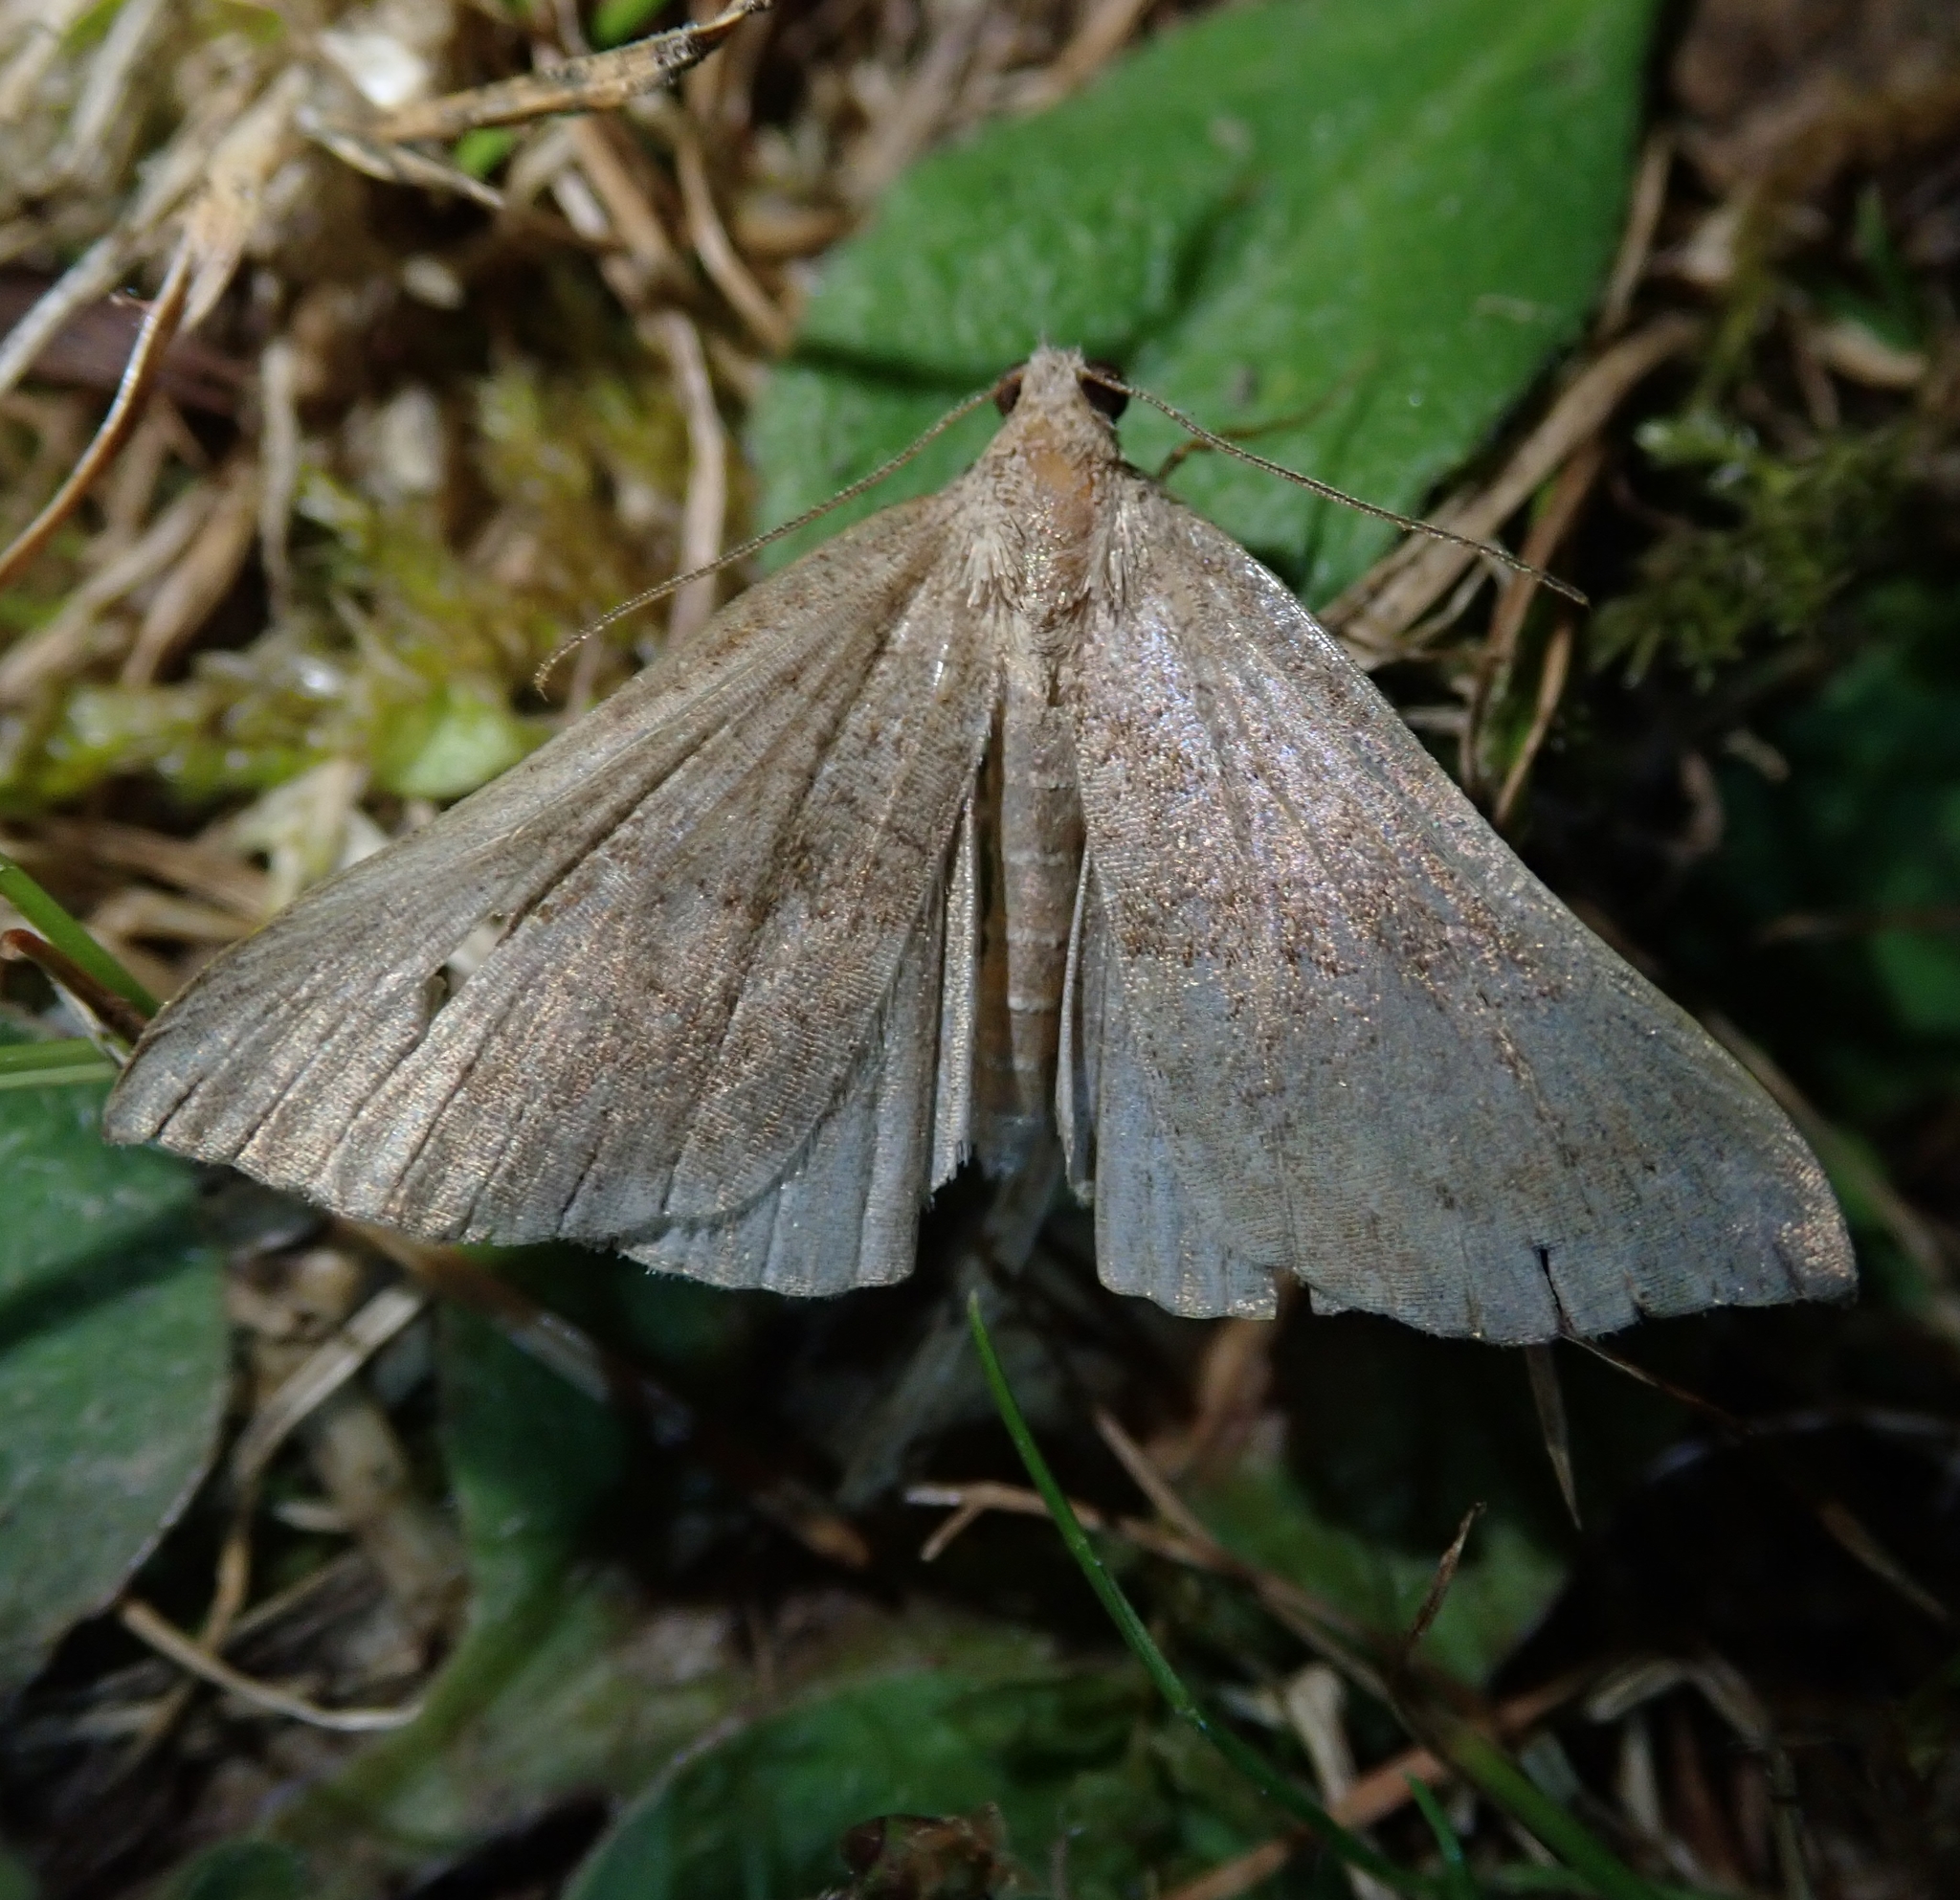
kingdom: Animalia
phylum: Arthropoda
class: Insecta
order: Lepidoptera
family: Erebidae
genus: Hypena
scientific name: Hypena proboscidalis
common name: Snout
